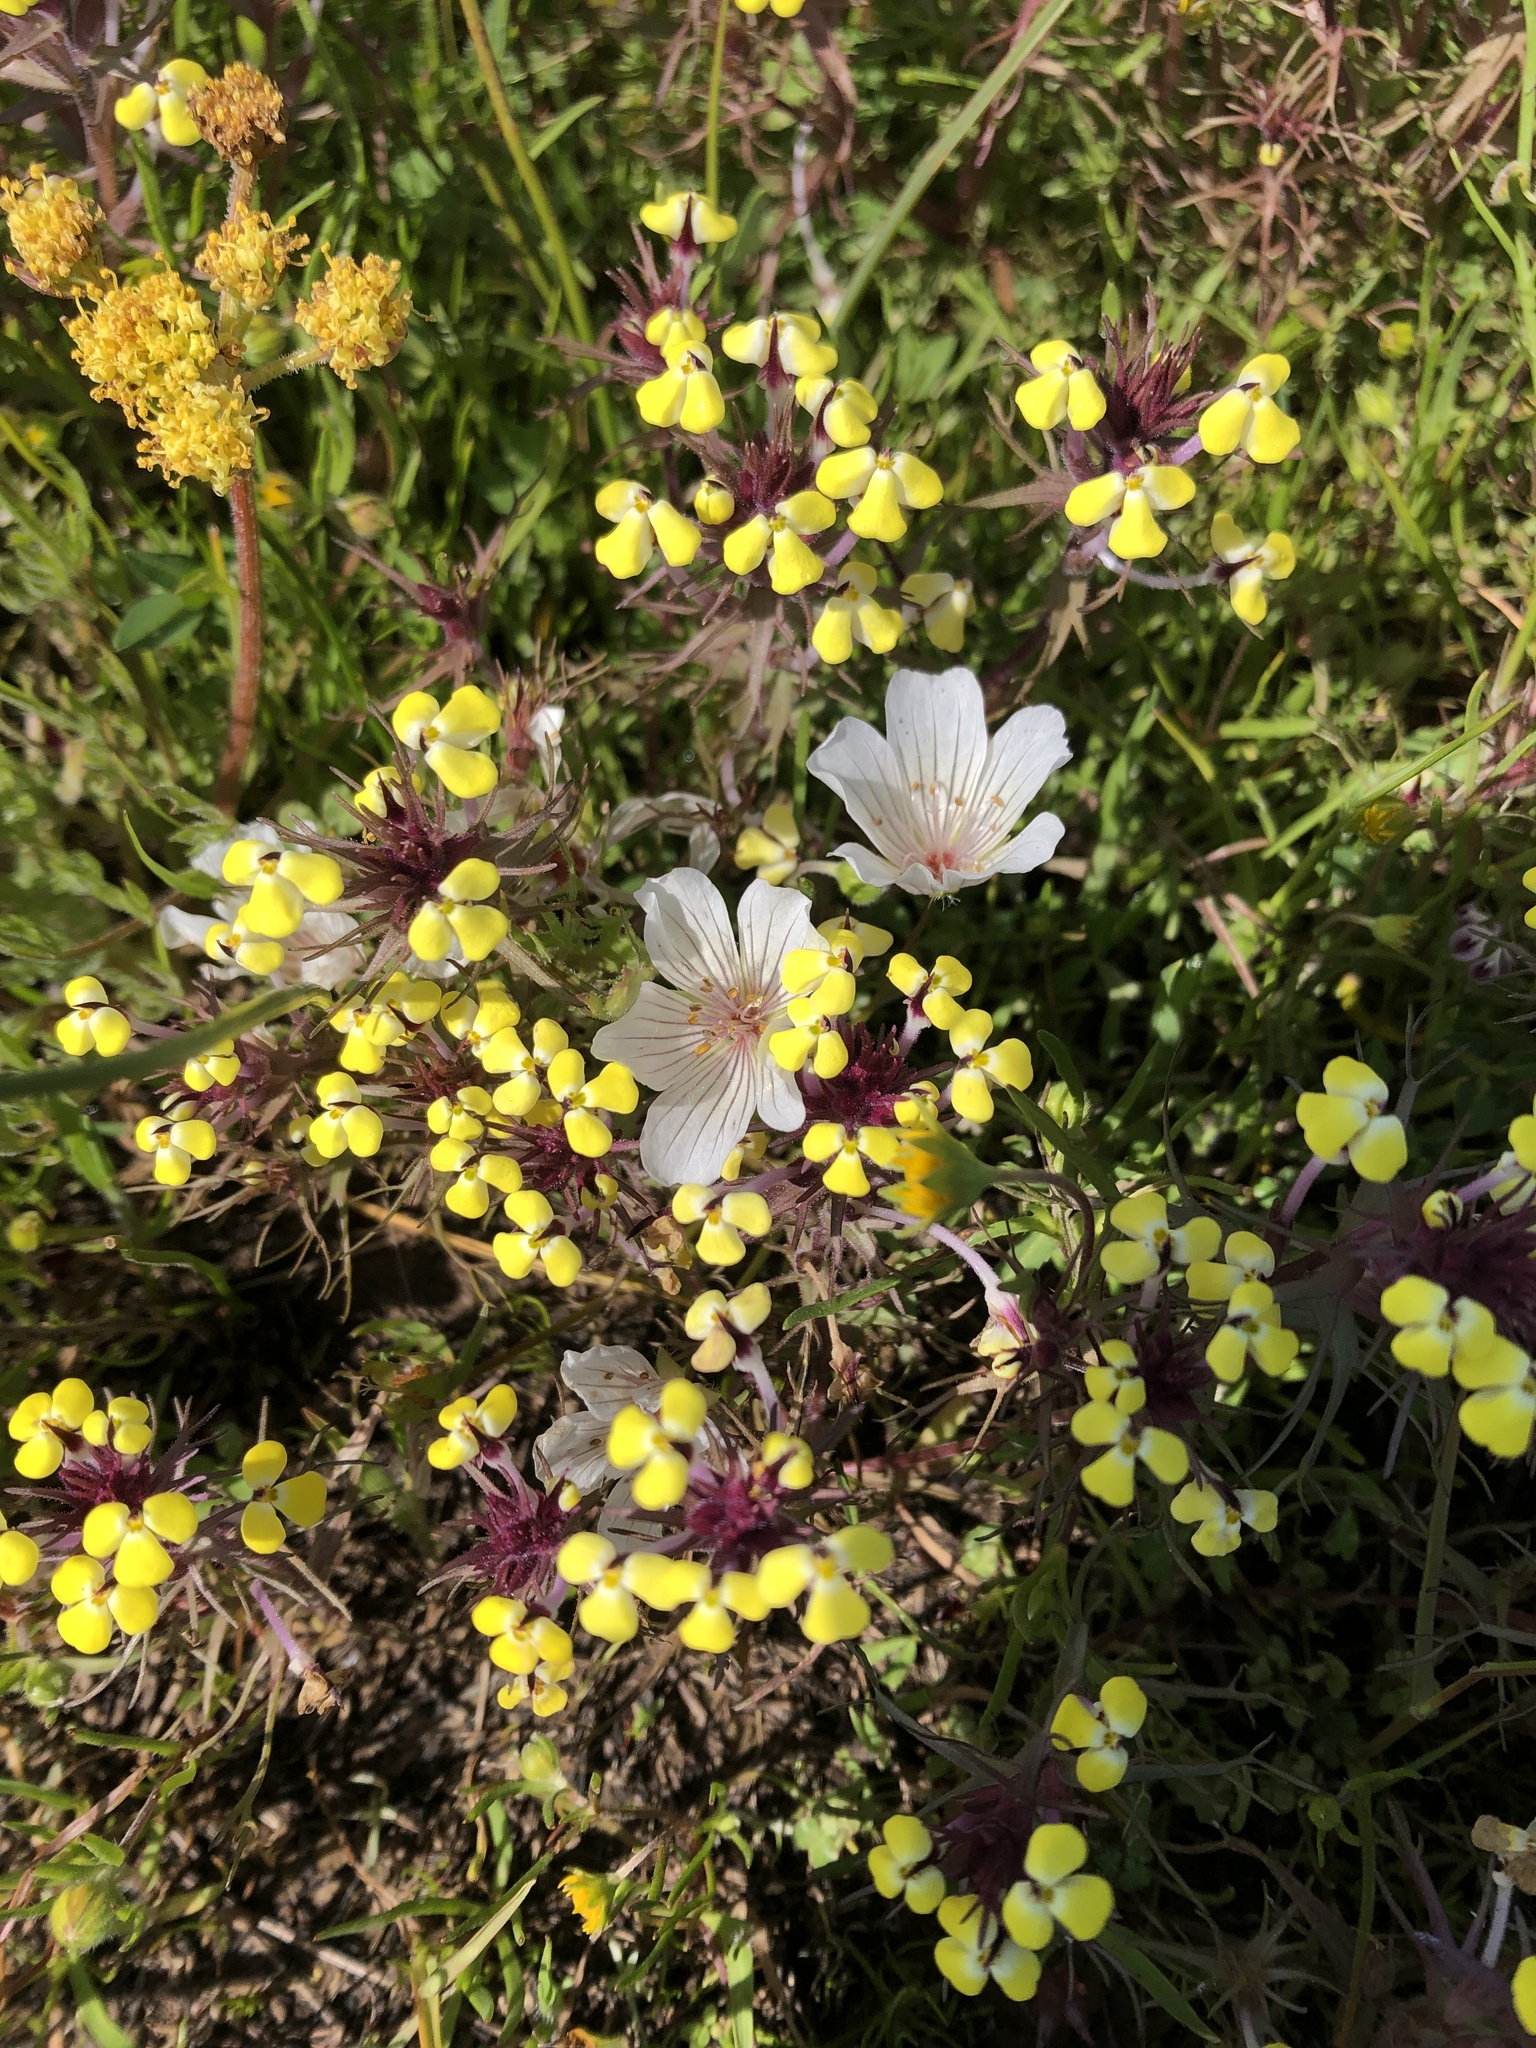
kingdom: Plantae
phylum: Tracheophyta
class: Magnoliopsida
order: Brassicales
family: Limnanthaceae
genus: Limnanthes
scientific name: Limnanthes douglasii
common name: Meadow-foam
